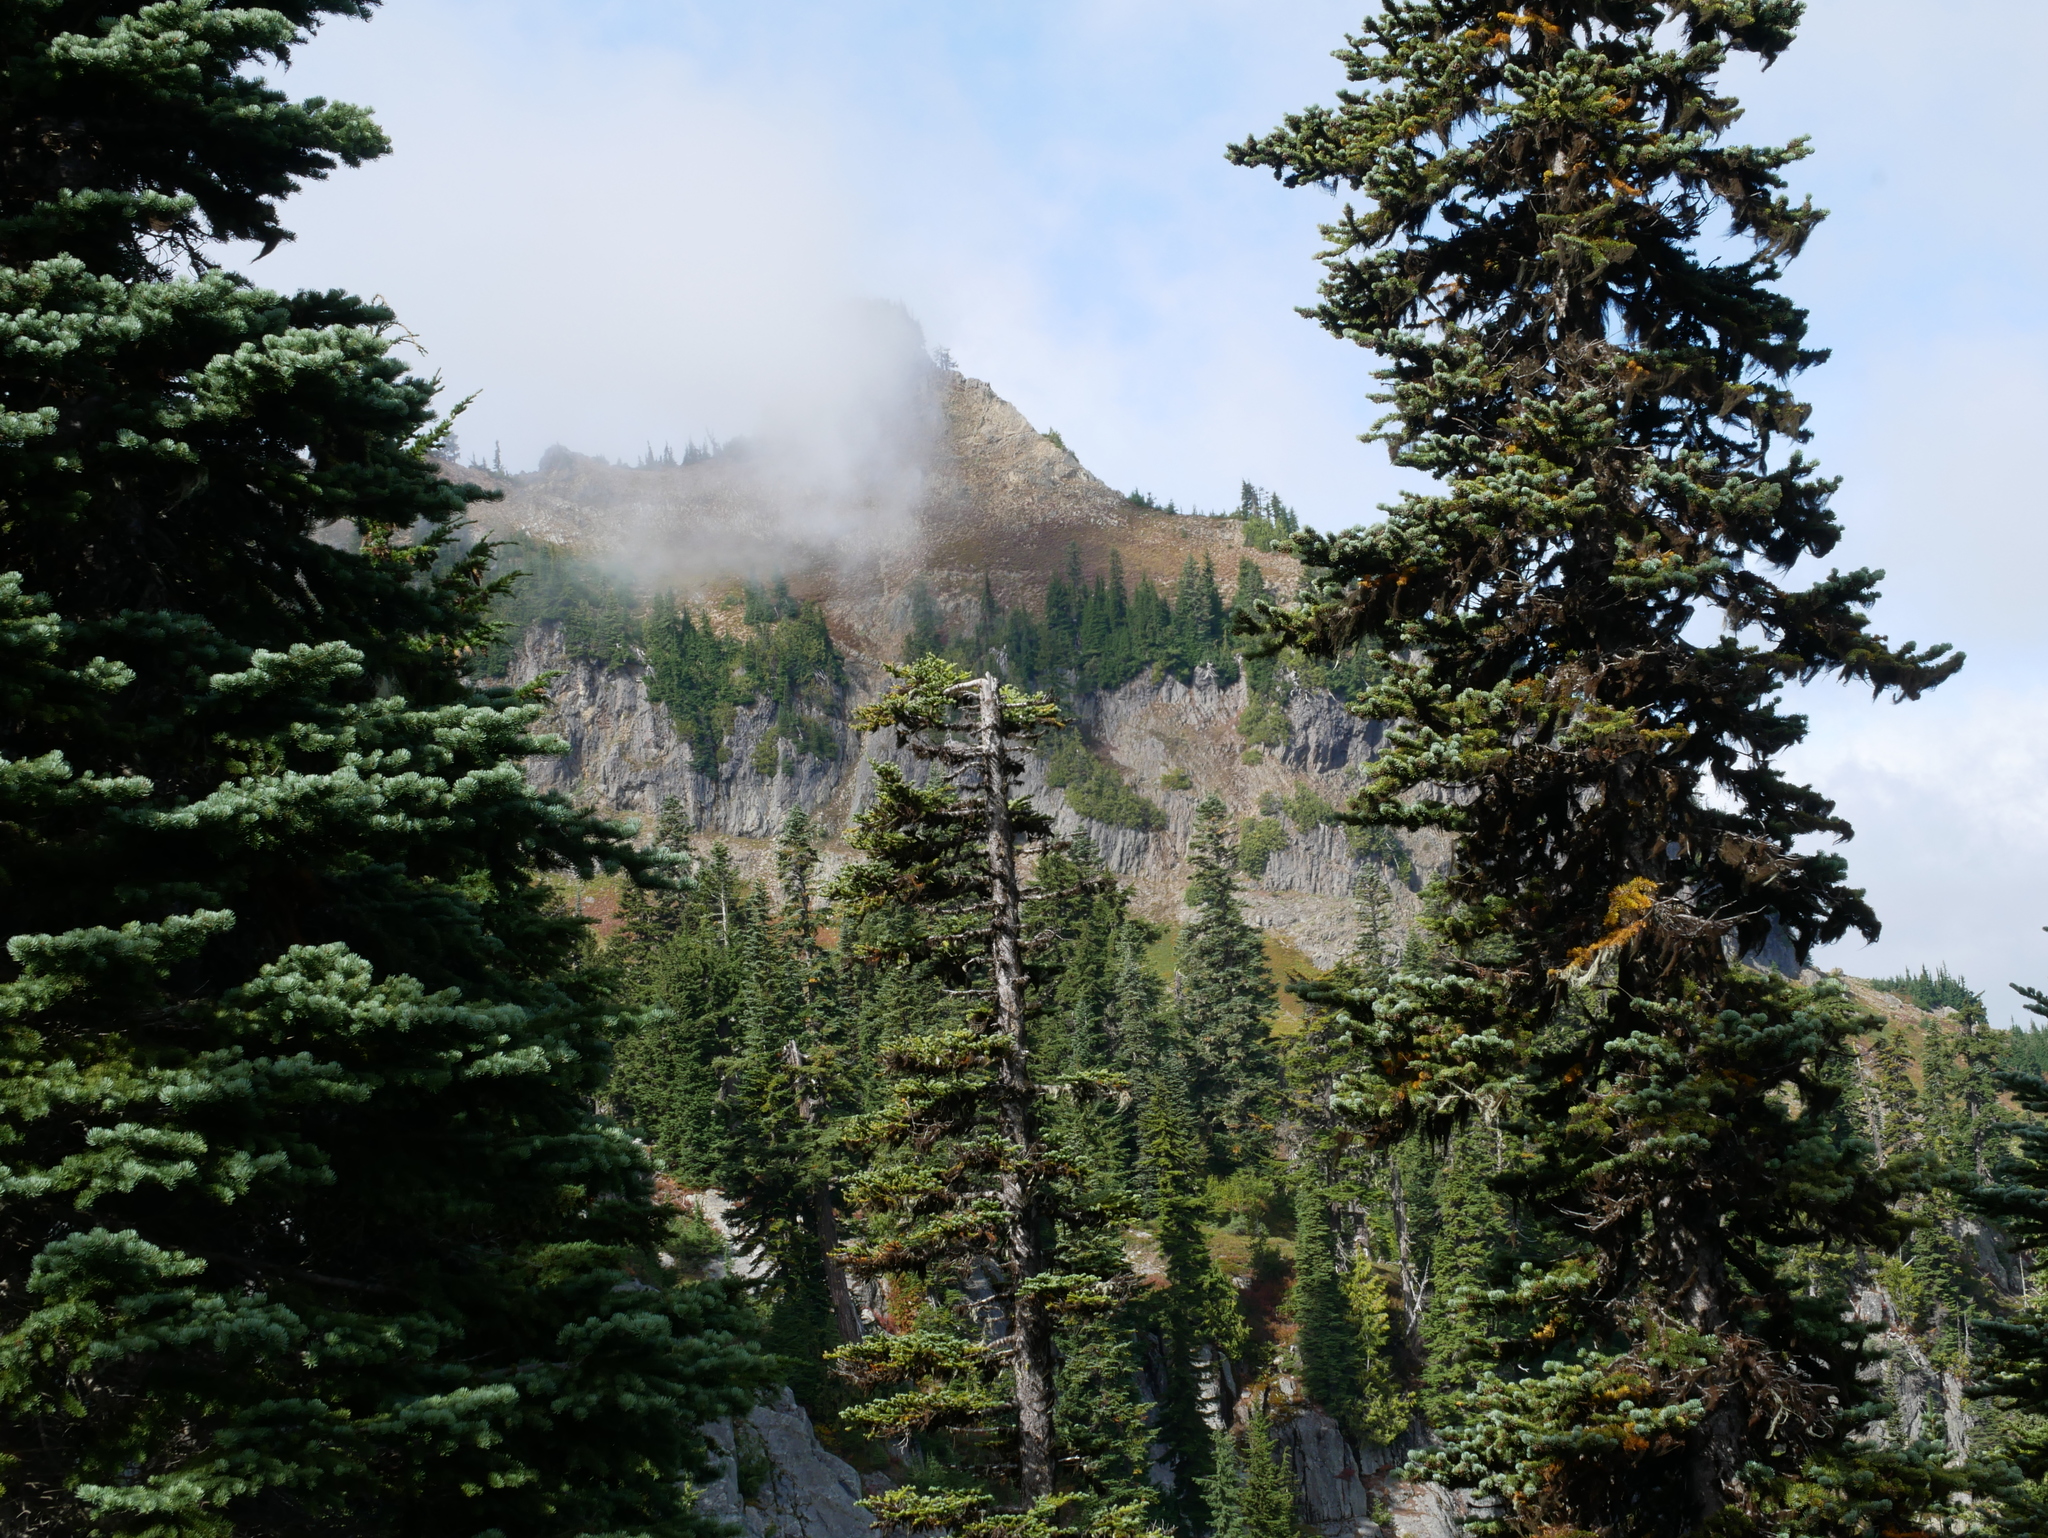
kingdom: Plantae
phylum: Tracheophyta
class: Pinopsida
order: Pinales
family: Pinaceae
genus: Abies
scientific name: Abies lasiocarpa
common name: Subalpine fir
